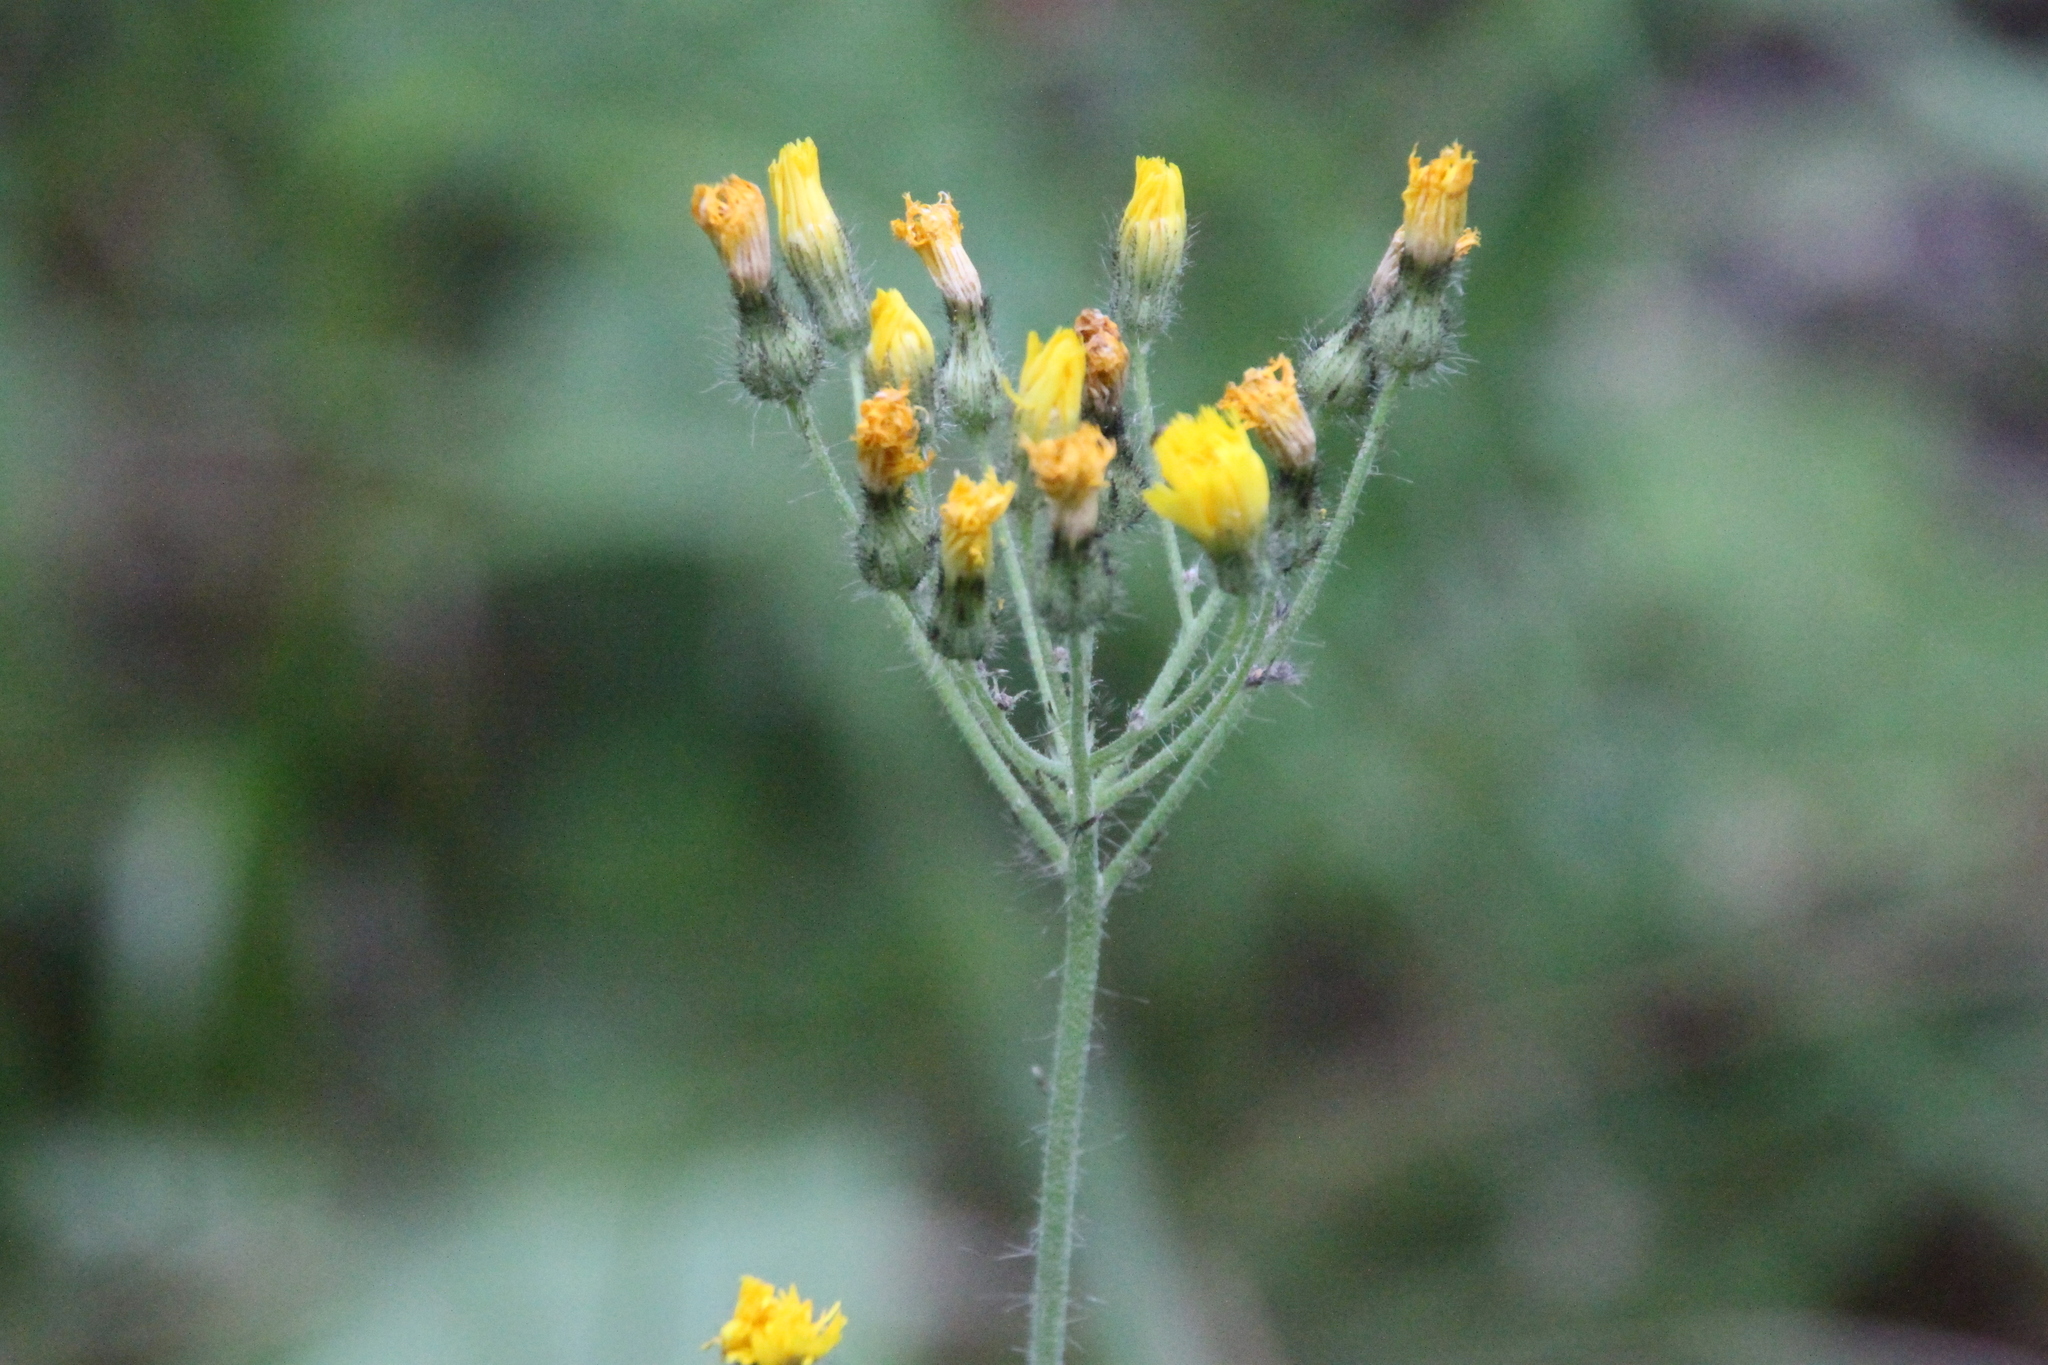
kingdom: Plantae
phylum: Tracheophyta
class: Magnoliopsida
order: Asterales
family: Asteraceae
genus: Pilosella
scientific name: Pilosella
